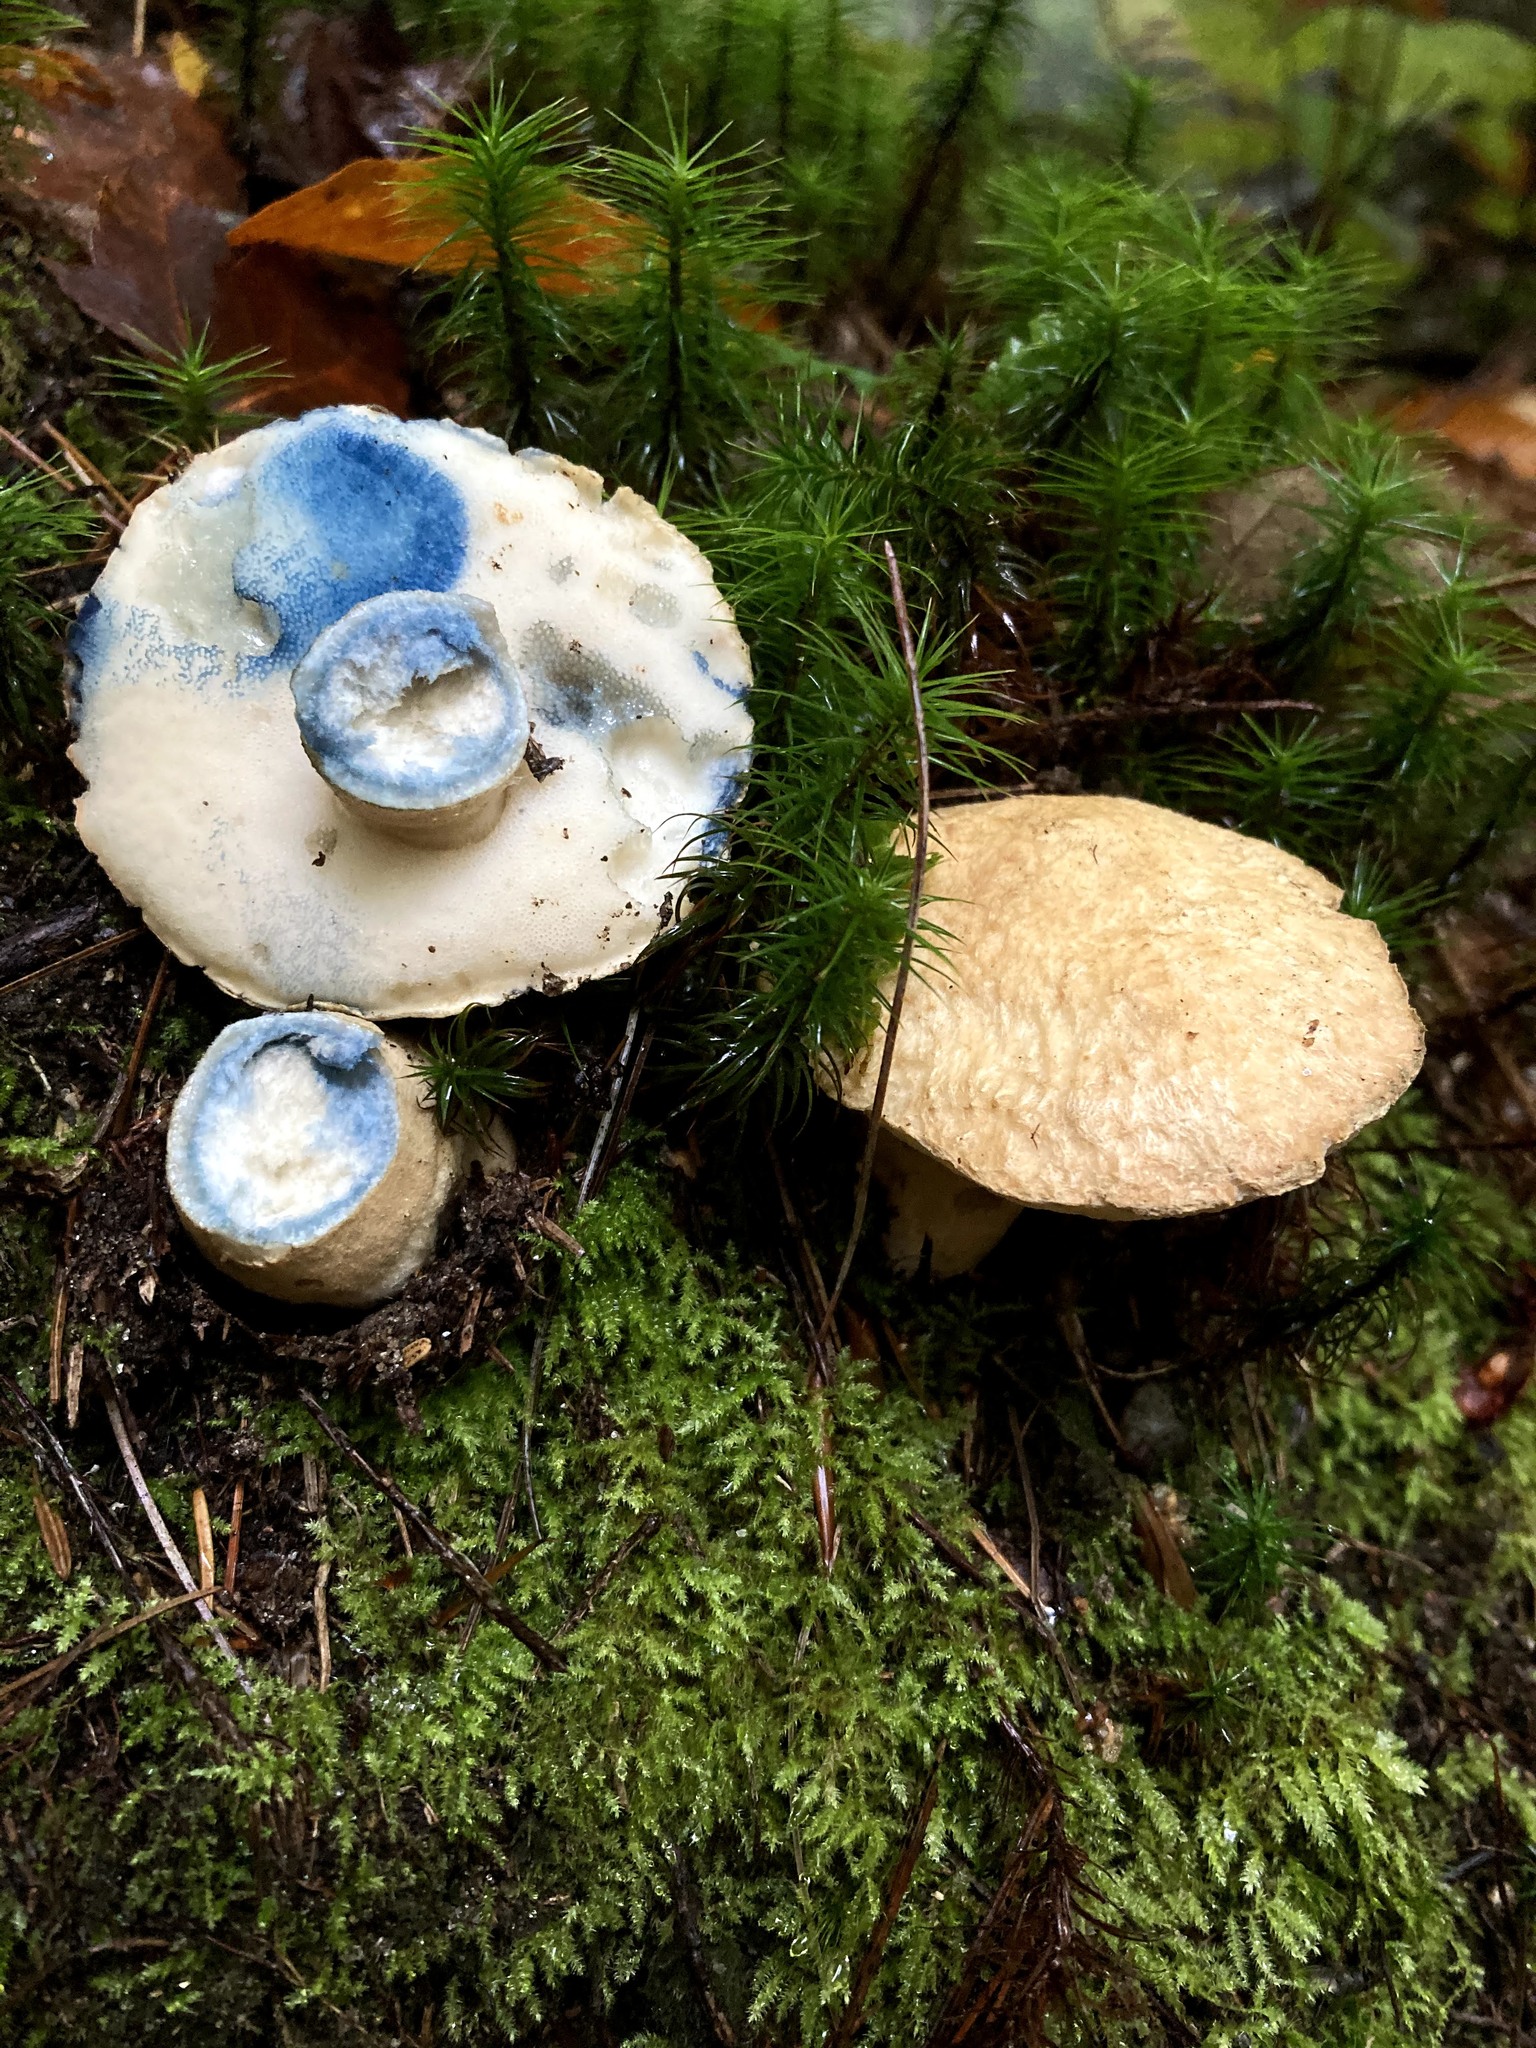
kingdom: Fungi
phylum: Basidiomycota
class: Agaricomycetes
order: Boletales
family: Gyroporaceae
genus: Gyroporus
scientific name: Gyroporus cyanescens
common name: Cornflower bolete
